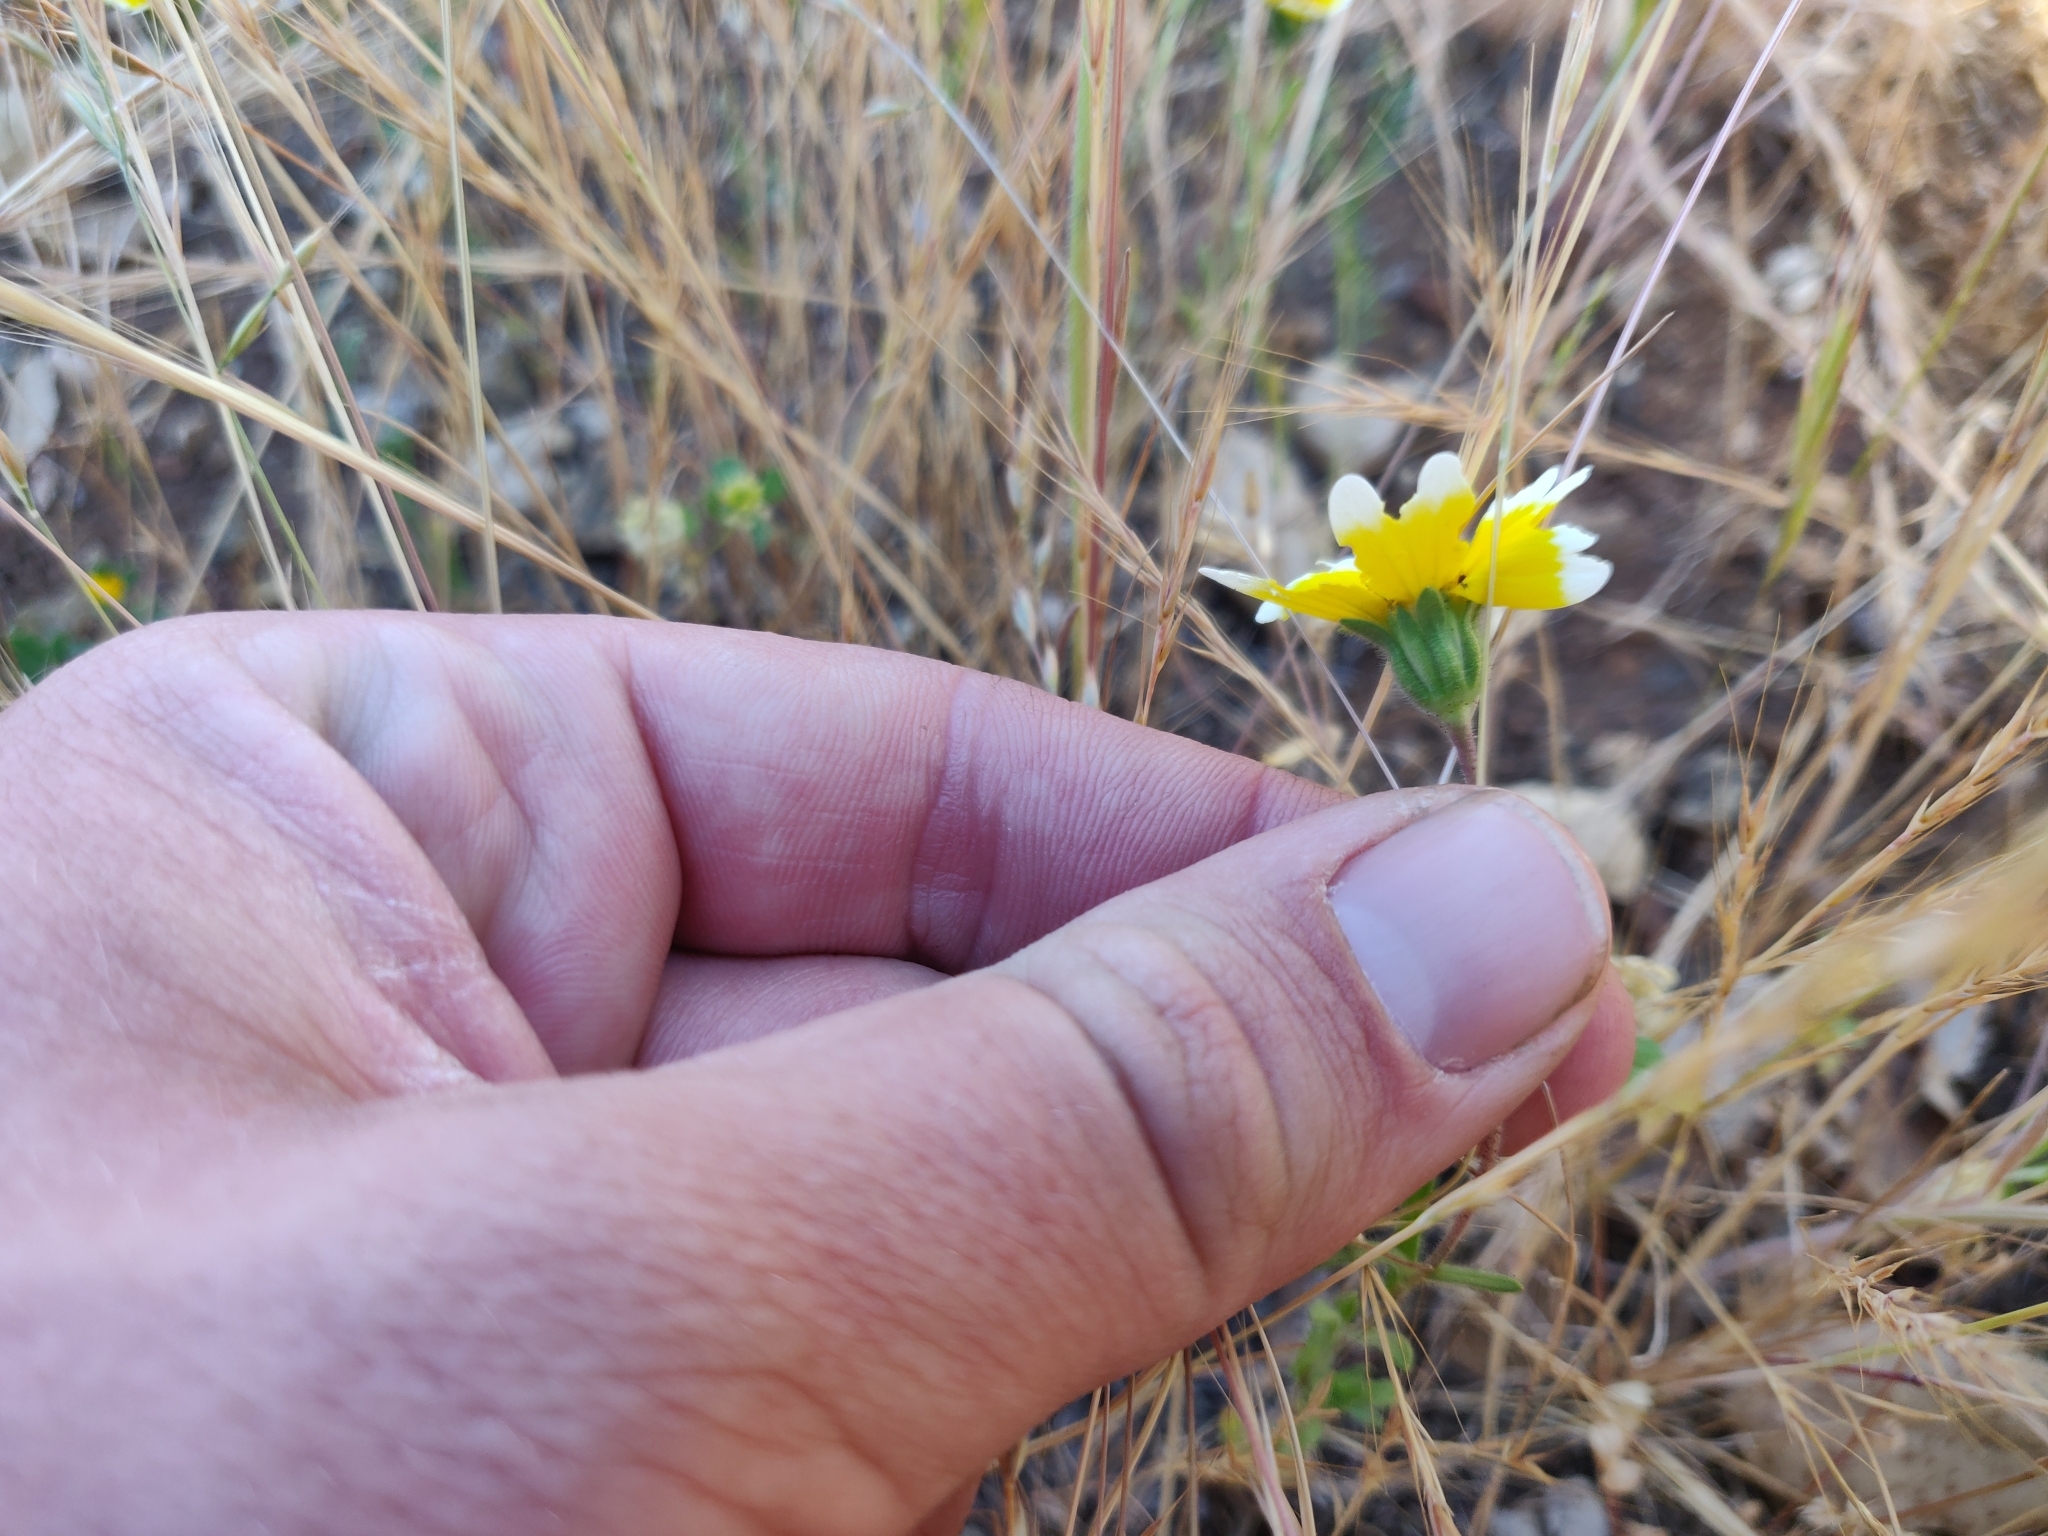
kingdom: Plantae
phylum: Tracheophyta
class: Magnoliopsida
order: Asterales
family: Asteraceae
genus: Layia
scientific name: Layia platyglossa
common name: Tidy-tips
